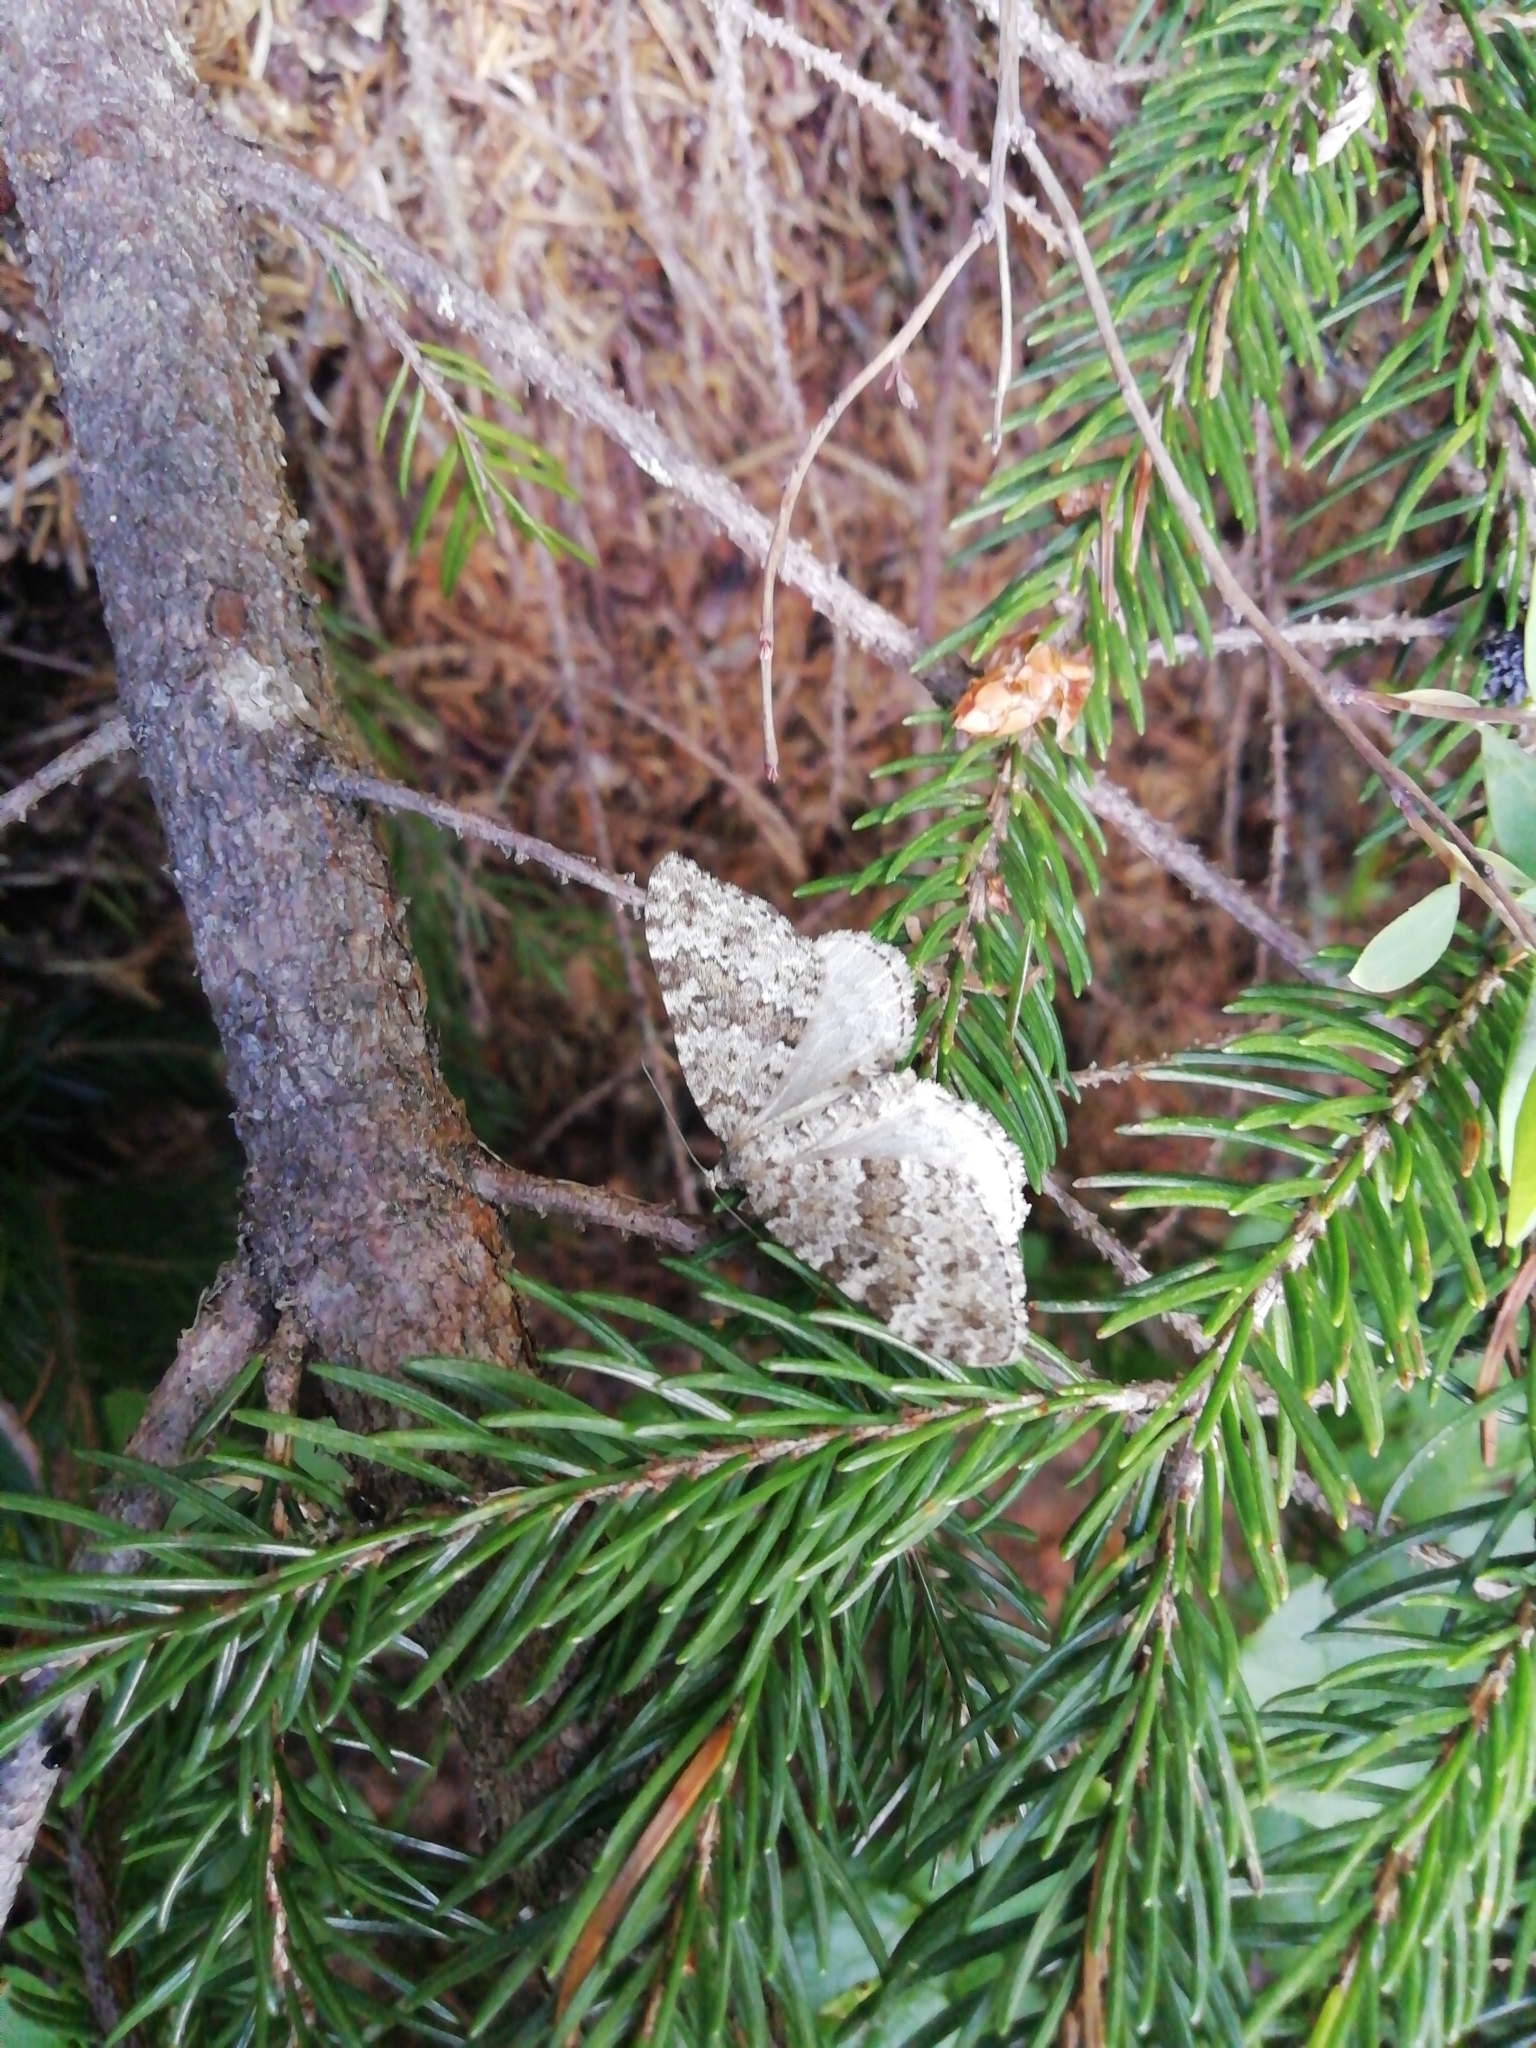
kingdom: Animalia
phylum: Arthropoda
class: Insecta
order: Lepidoptera
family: Geometridae
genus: Entephria
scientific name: Entephria caesiata
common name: Grey mountain moth
